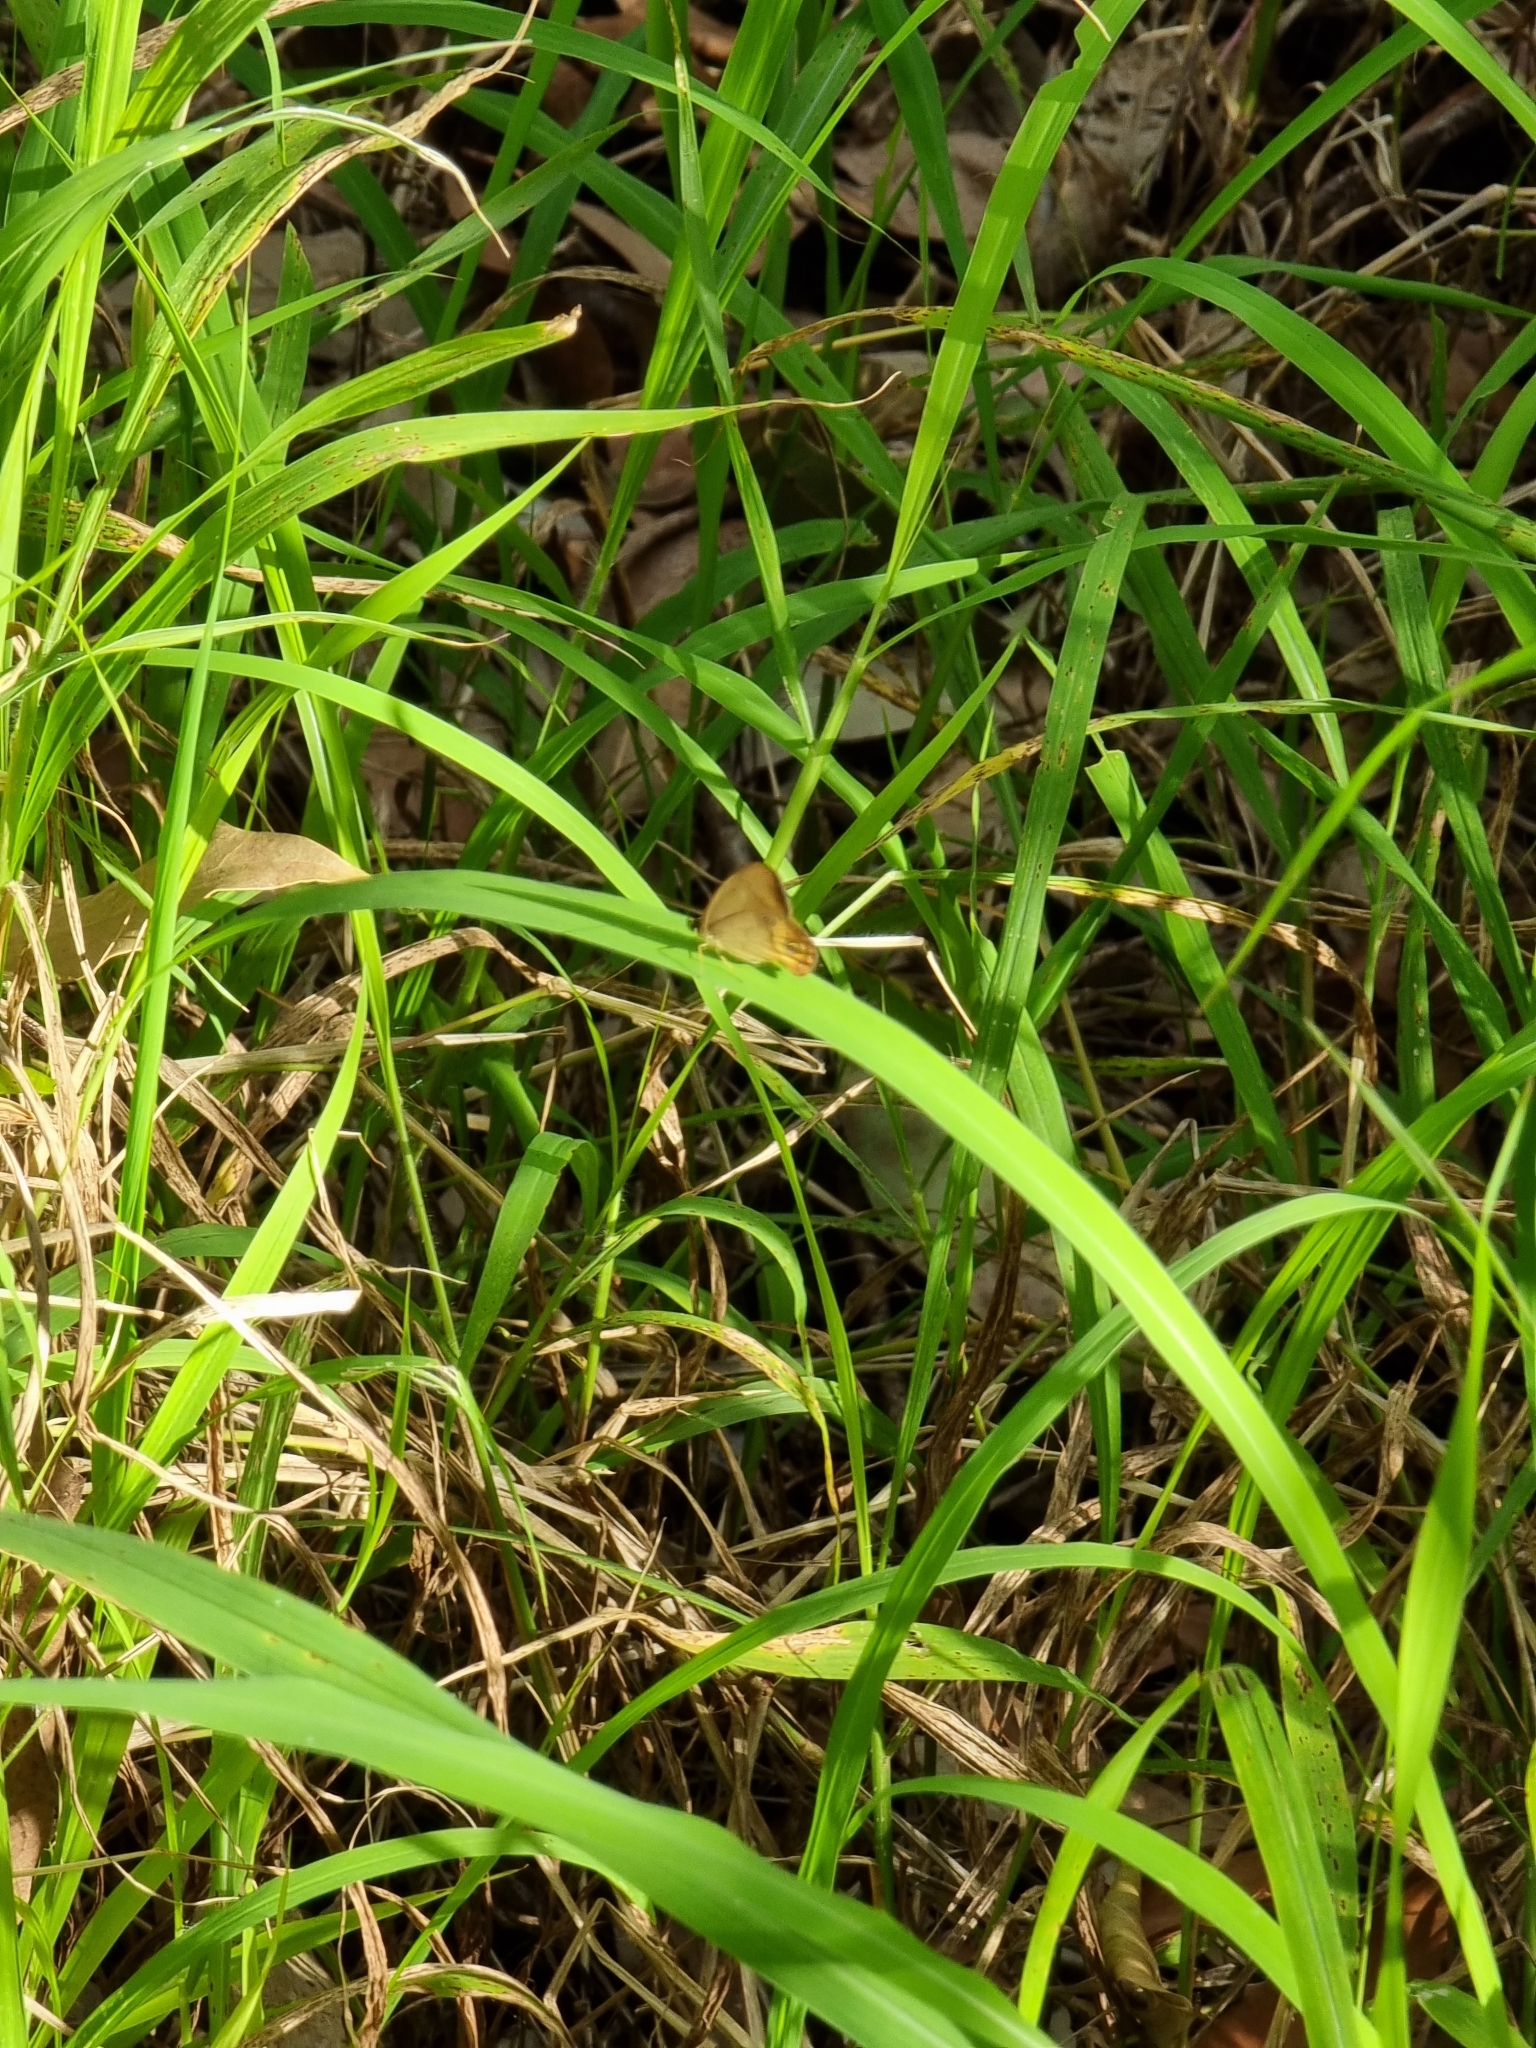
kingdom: Animalia
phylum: Arthropoda
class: Insecta
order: Lepidoptera
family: Nymphalidae
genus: Hypocysta
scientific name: Hypocysta metirius
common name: Brown ringlet
